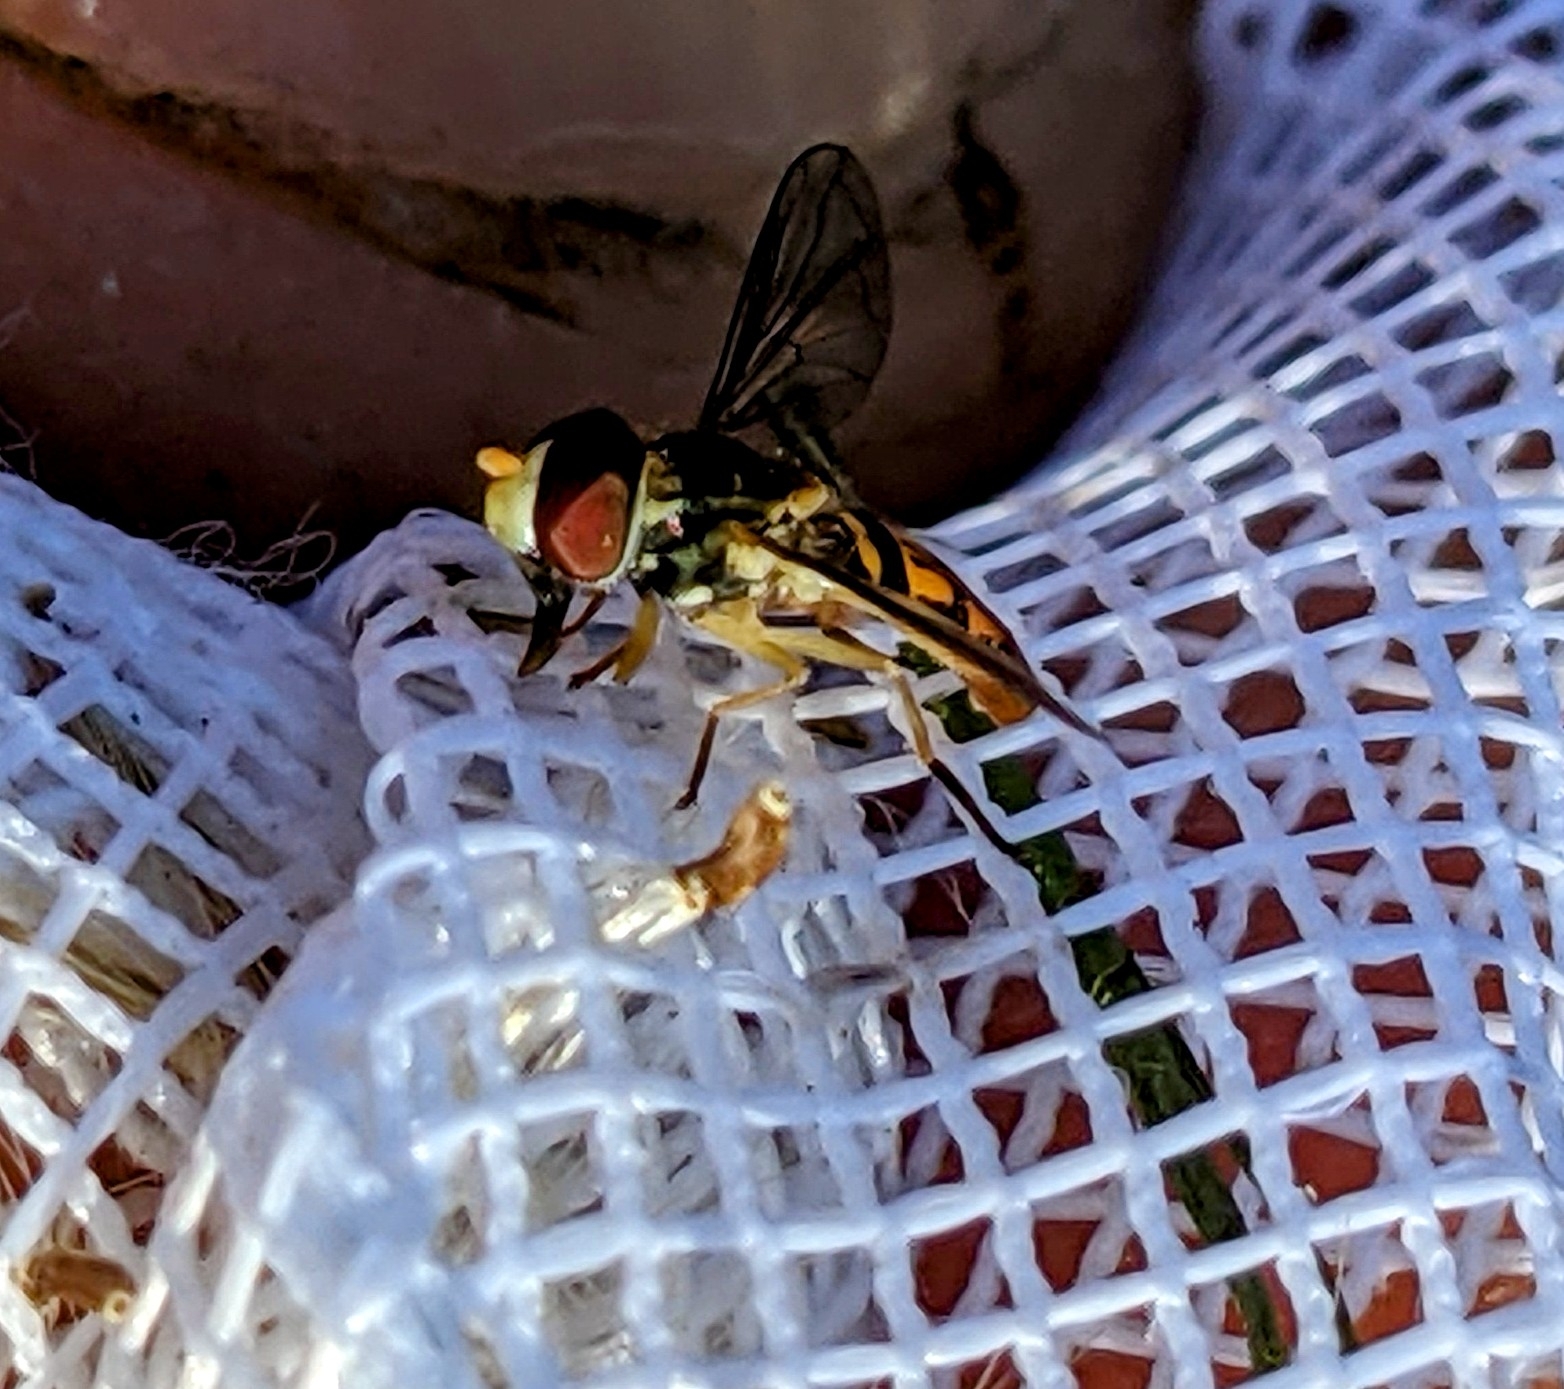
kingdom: Animalia
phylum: Arthropoda
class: Insecta
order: Diptera
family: Syrphidae
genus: Toxomerus
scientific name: Toxomerus marginatus
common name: Syrphid fly
